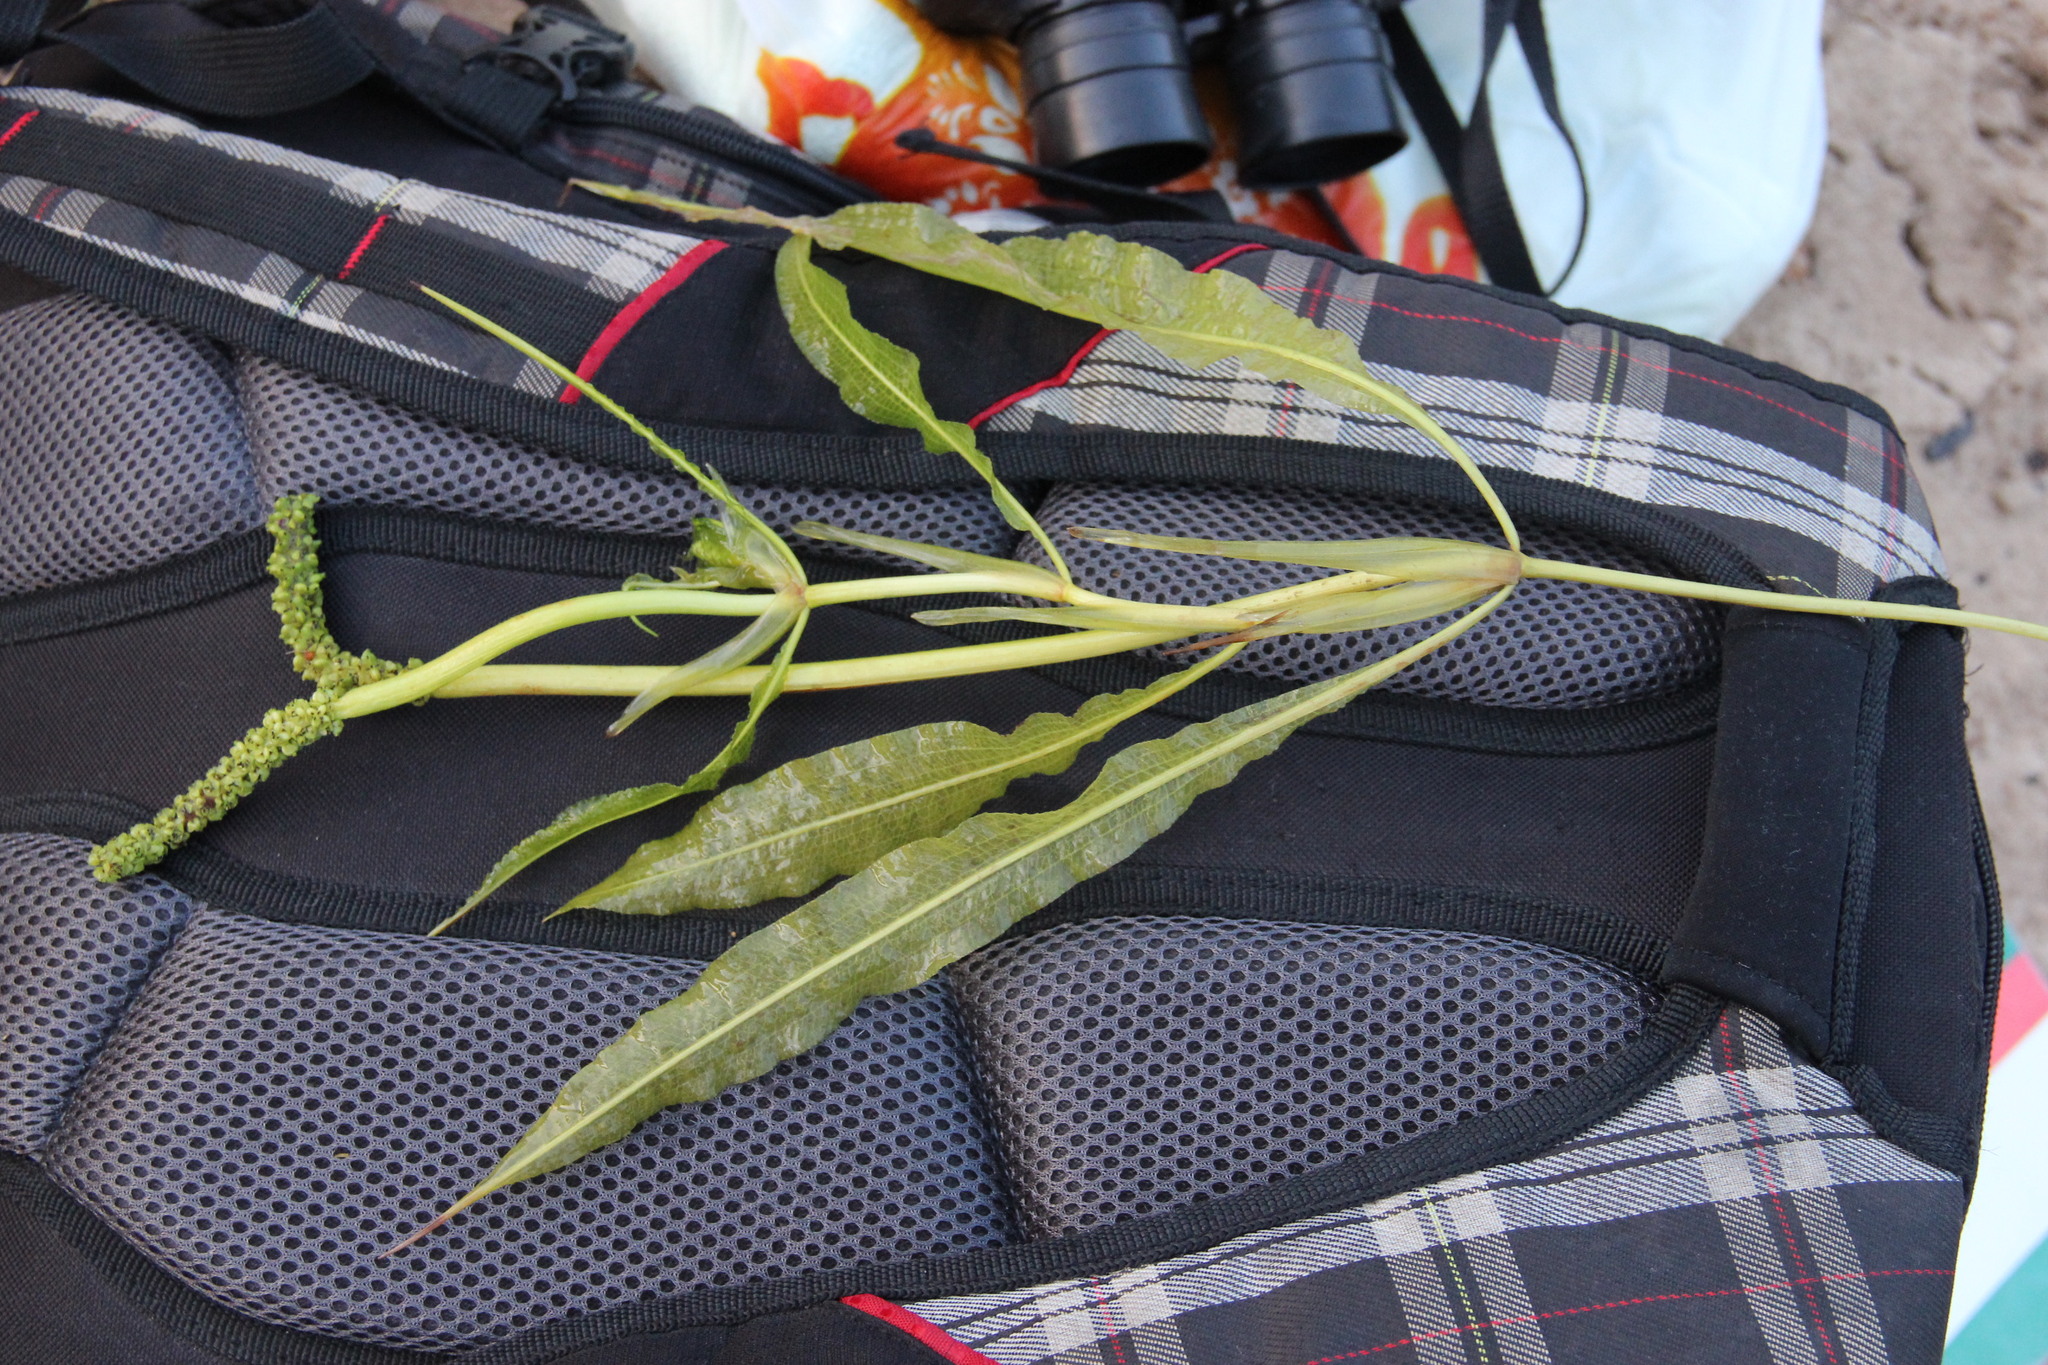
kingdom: Plantae
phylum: Tracheophyta
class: Liliopsida
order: Alismatales
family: Potamogetonaceae
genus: Potamogeton
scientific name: Potamogeton lucens
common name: Shining pondweed
